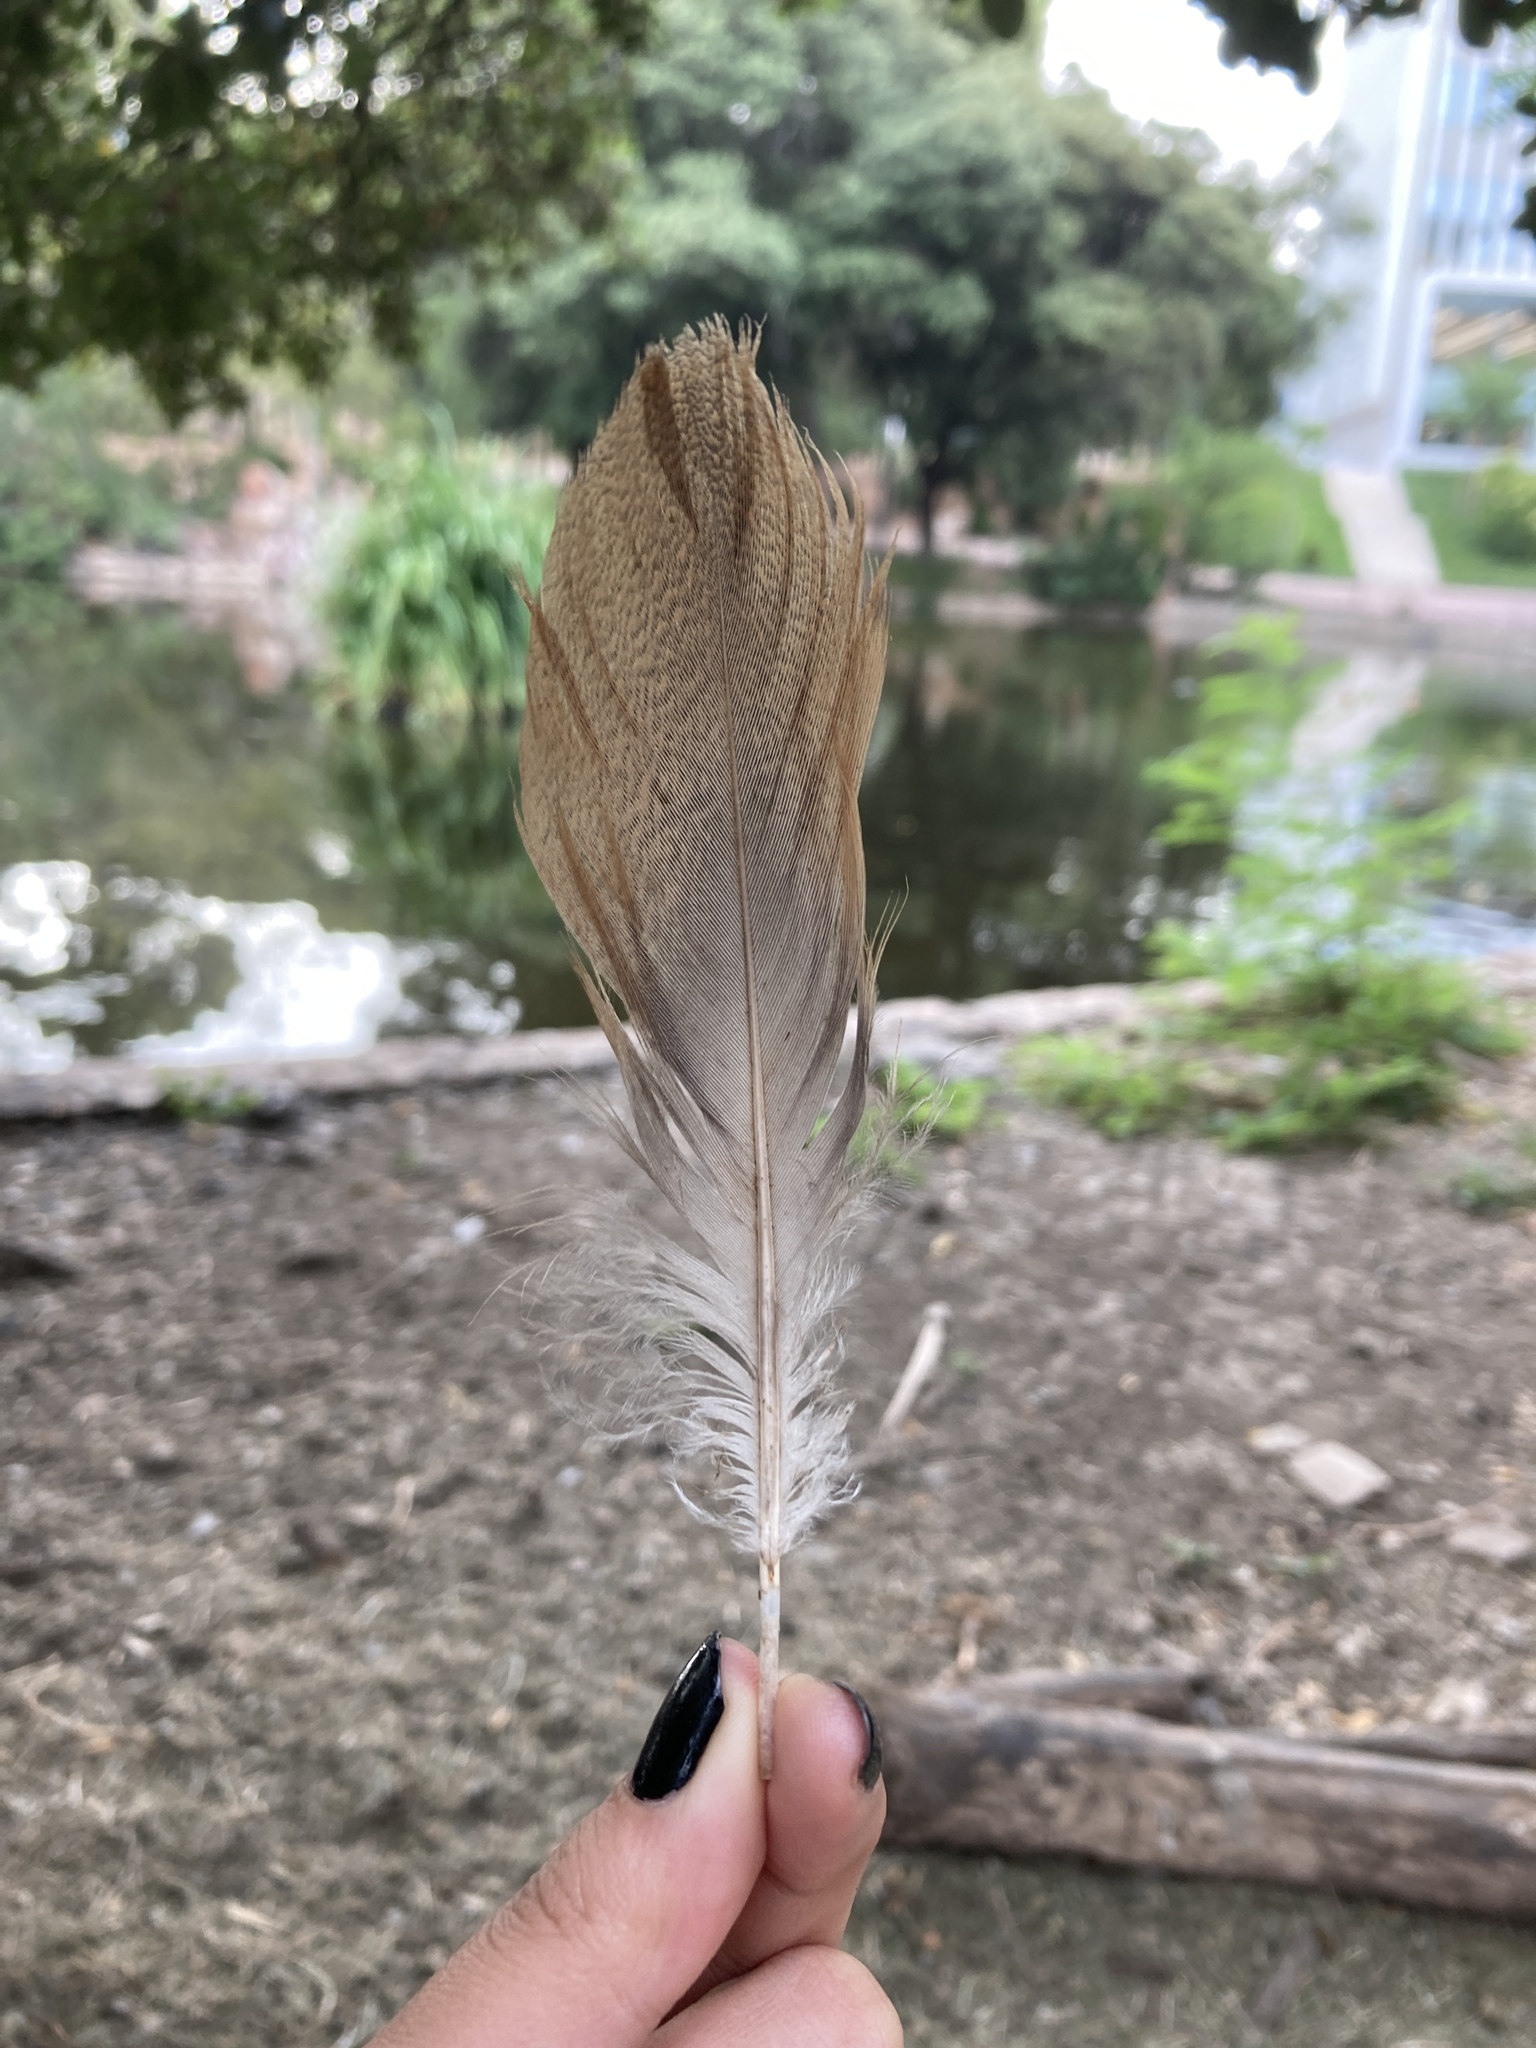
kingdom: Animalia
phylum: Chordata
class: Aves
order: Anseriformes
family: Anatidae
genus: Tadorna
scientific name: Tadorna ferruginea
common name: Ruddy shelduck
